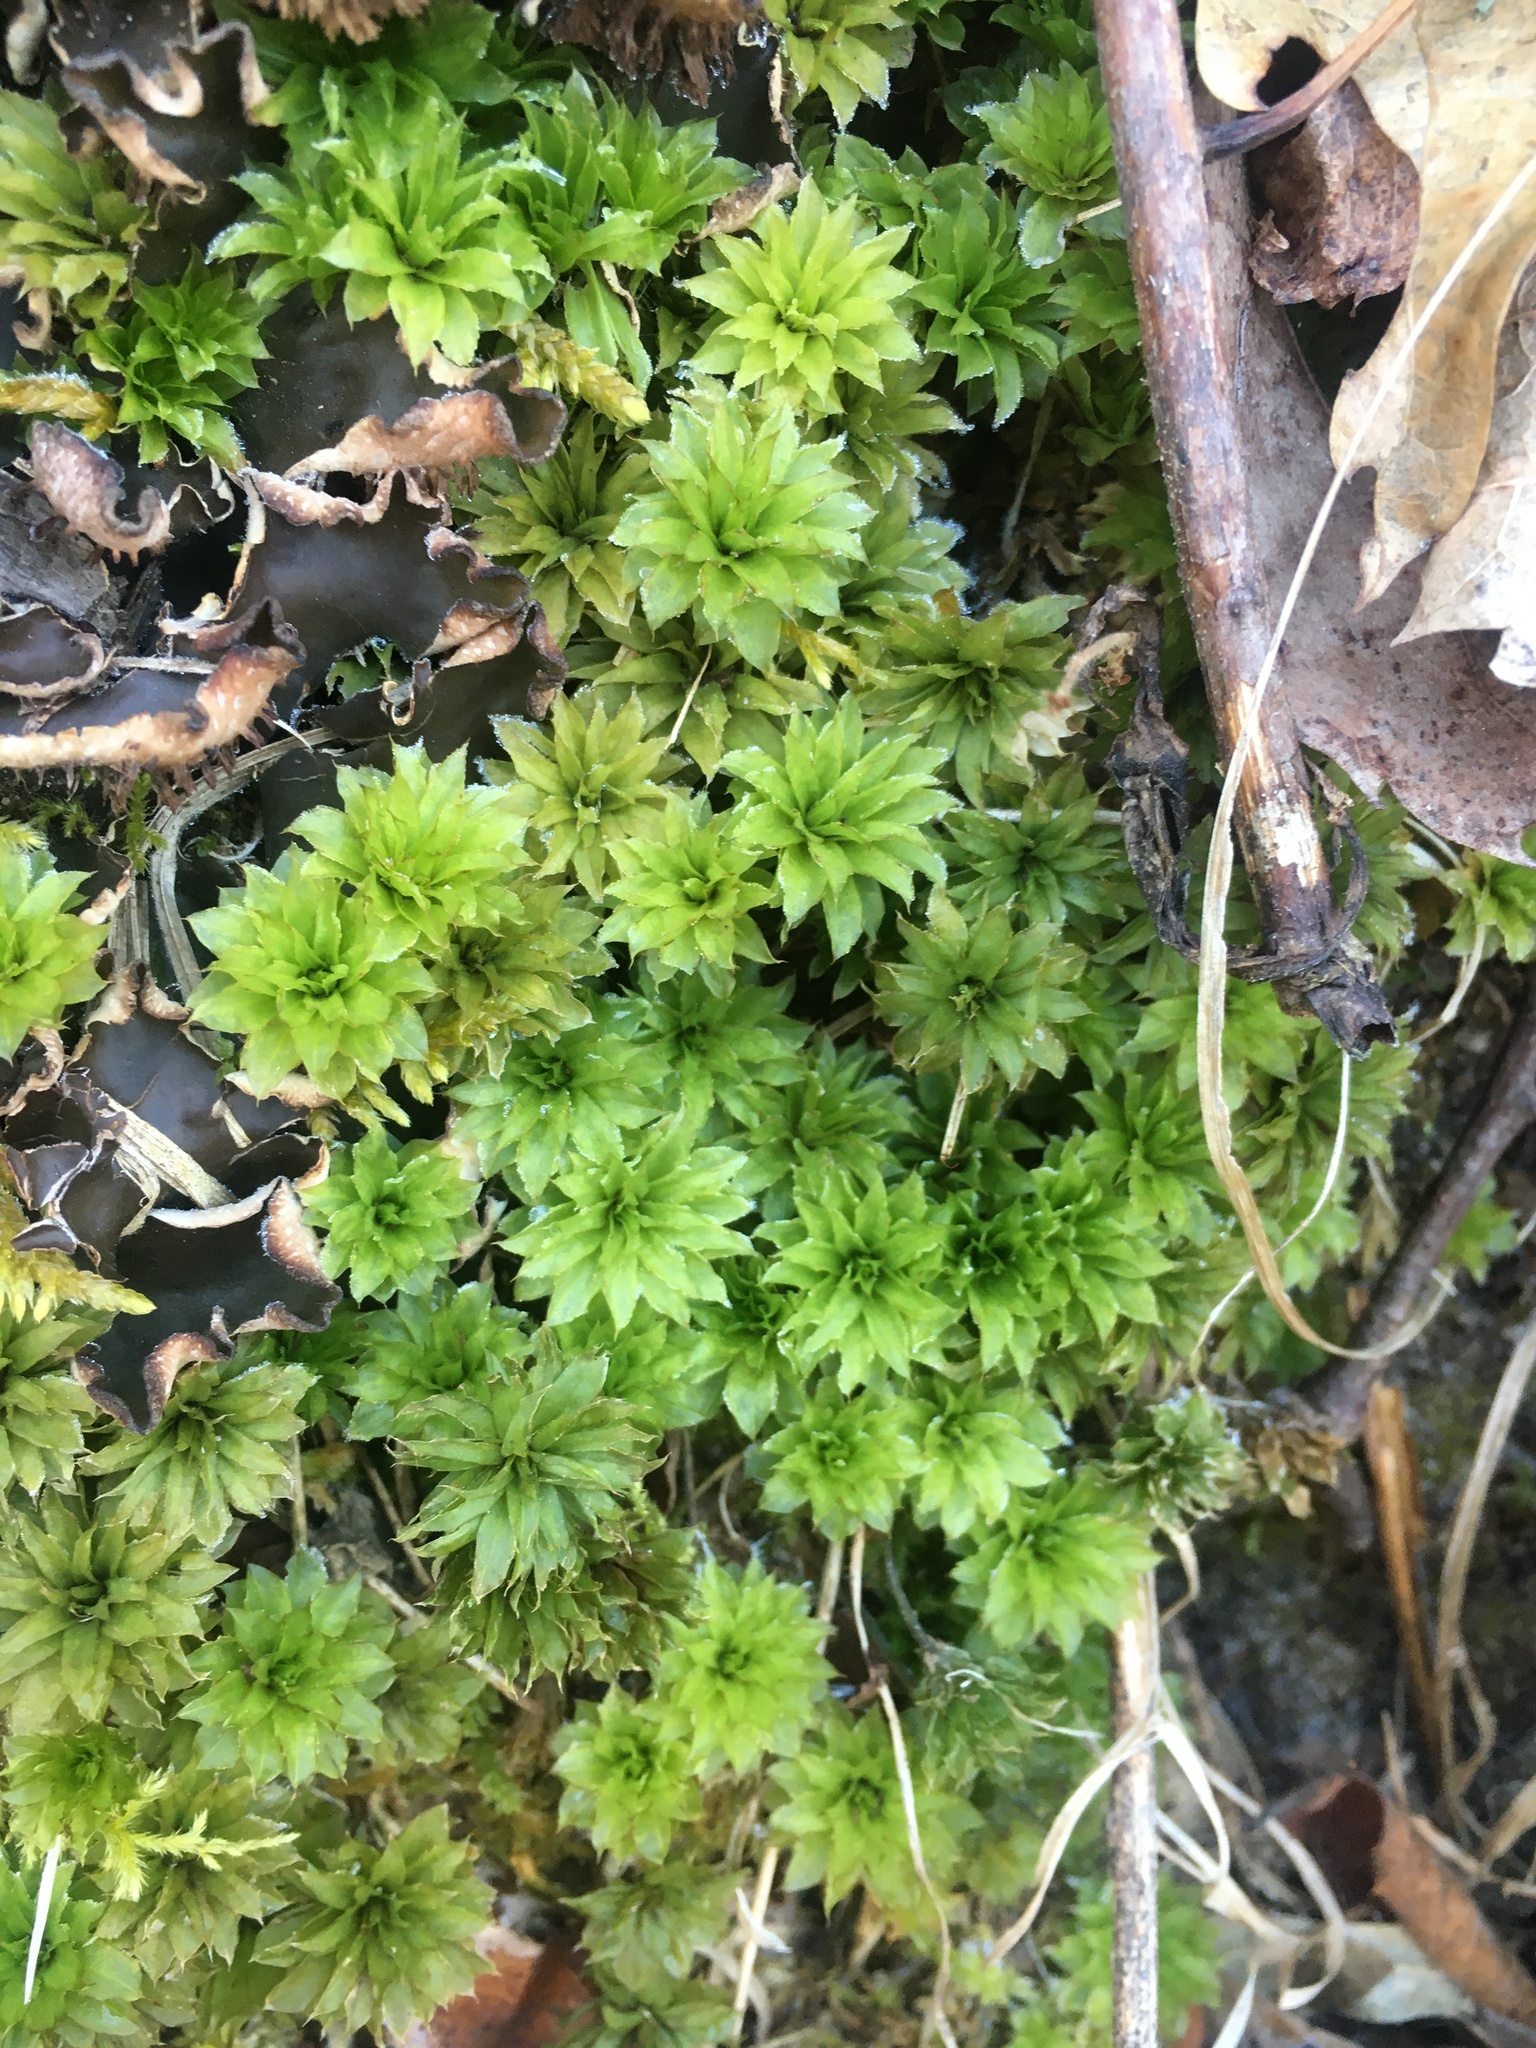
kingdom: Plantae
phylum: Bryophyta
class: Bryopsida
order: Bryales
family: Bryaceae
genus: Rhodobryum
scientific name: Rhodobryum ontariense
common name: Ontario rhodobryum moss
